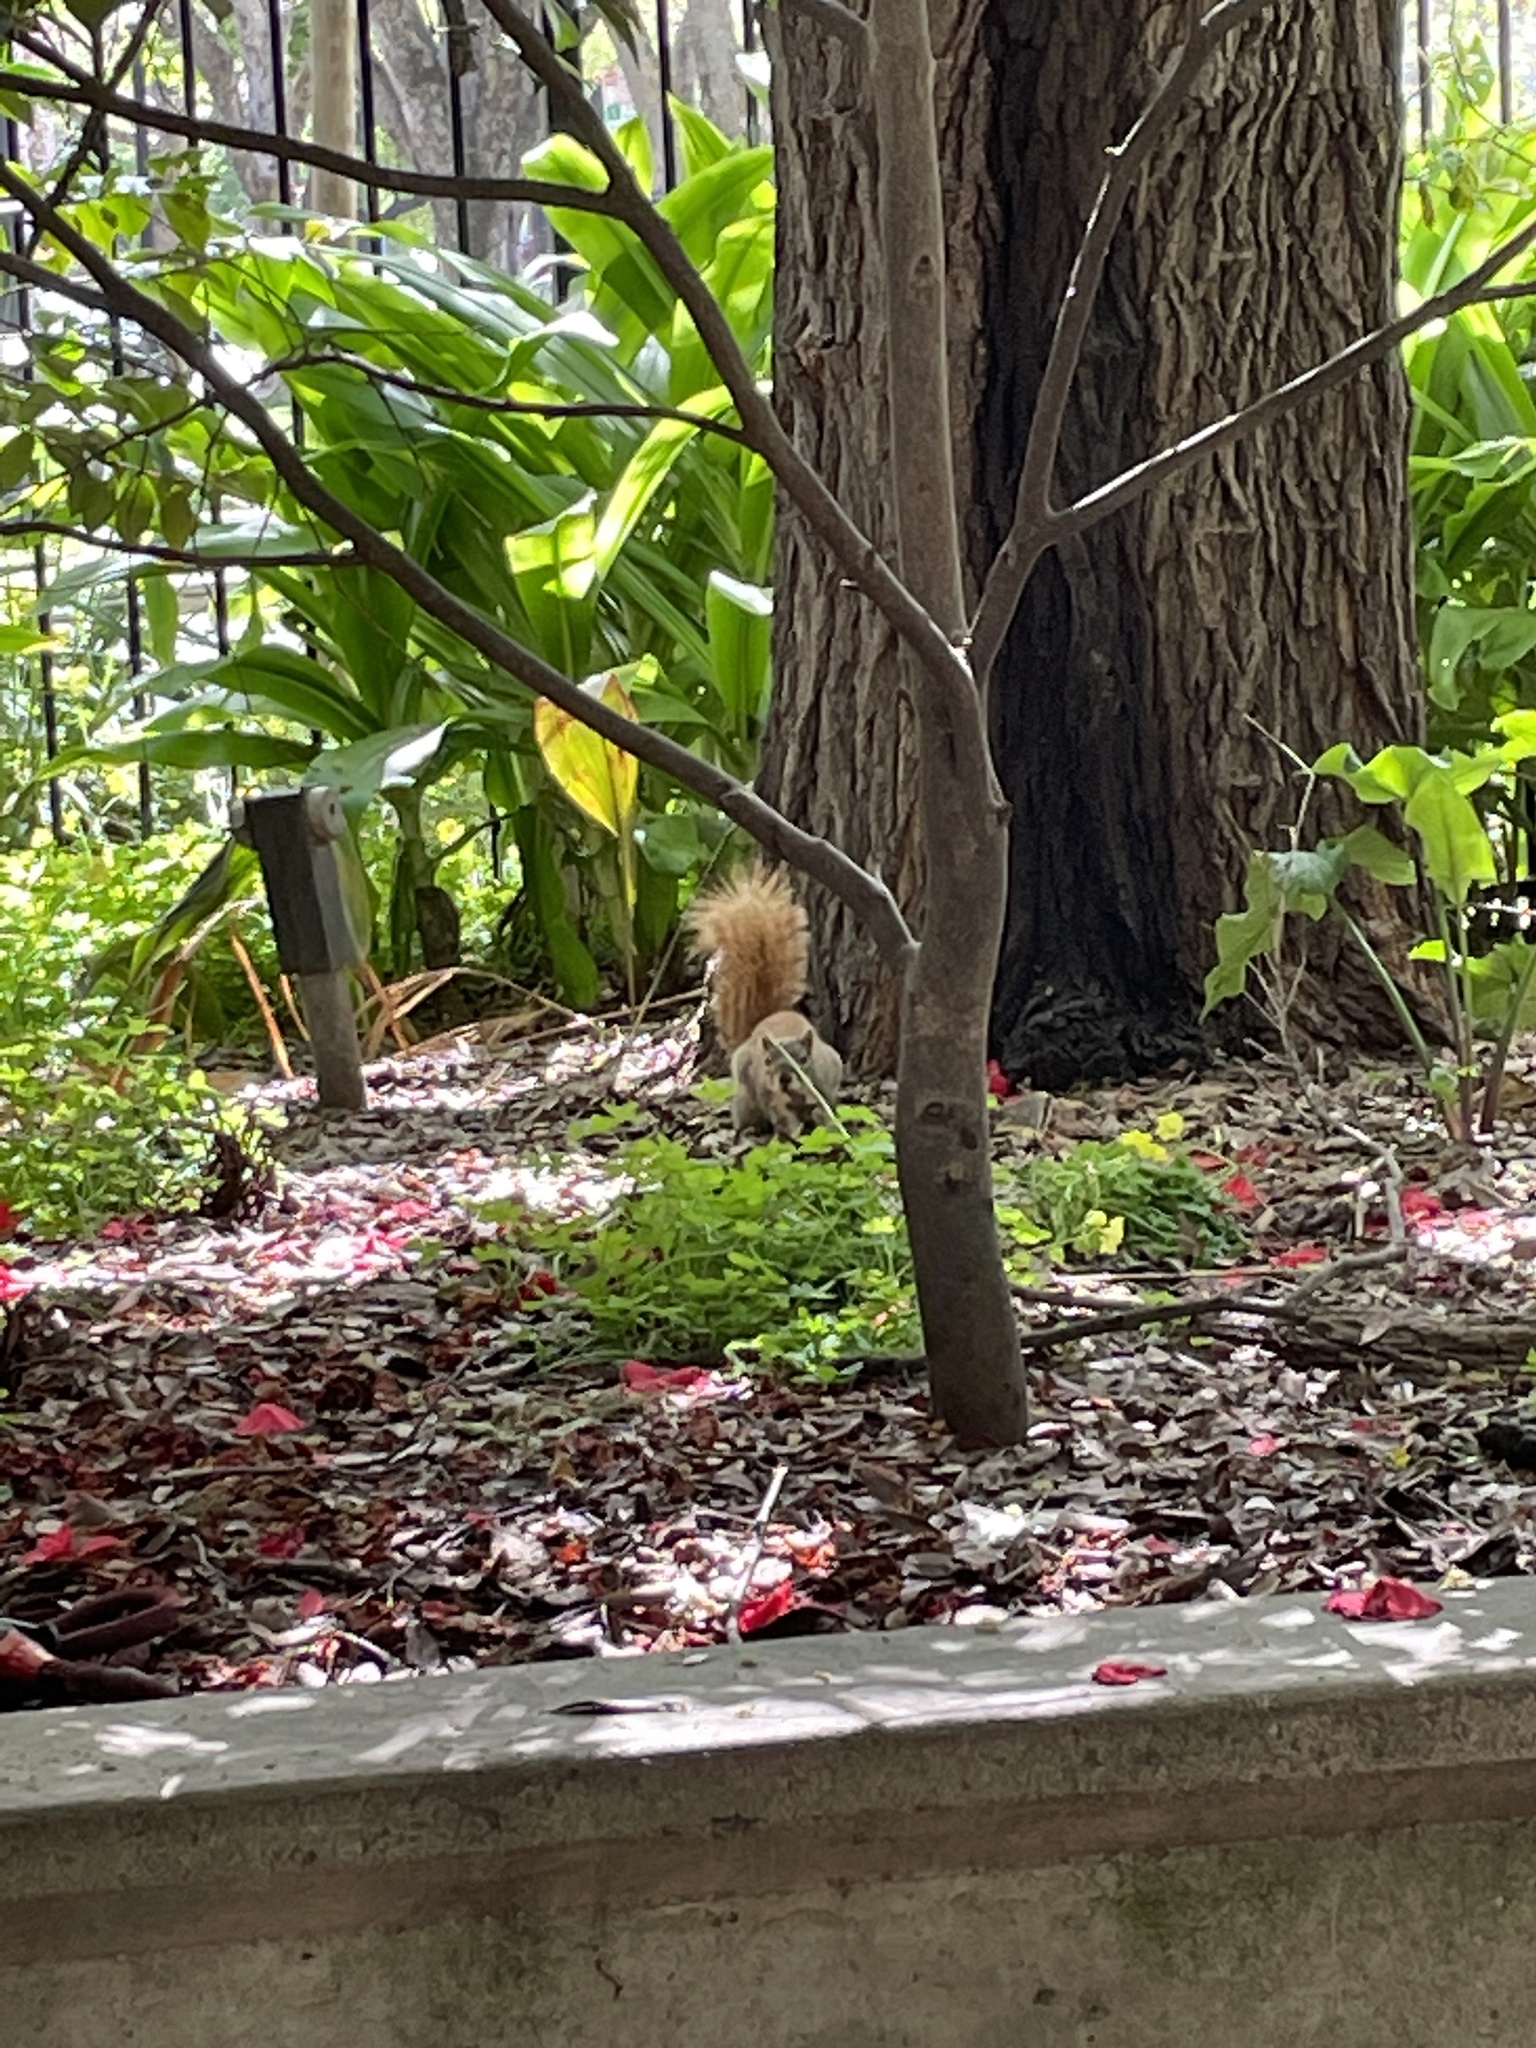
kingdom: Animalia
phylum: Chordata
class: Mammalia
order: Rodentia
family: Sciuridae
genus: Sciurus
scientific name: Sciurus niger
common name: Fox squirrel
